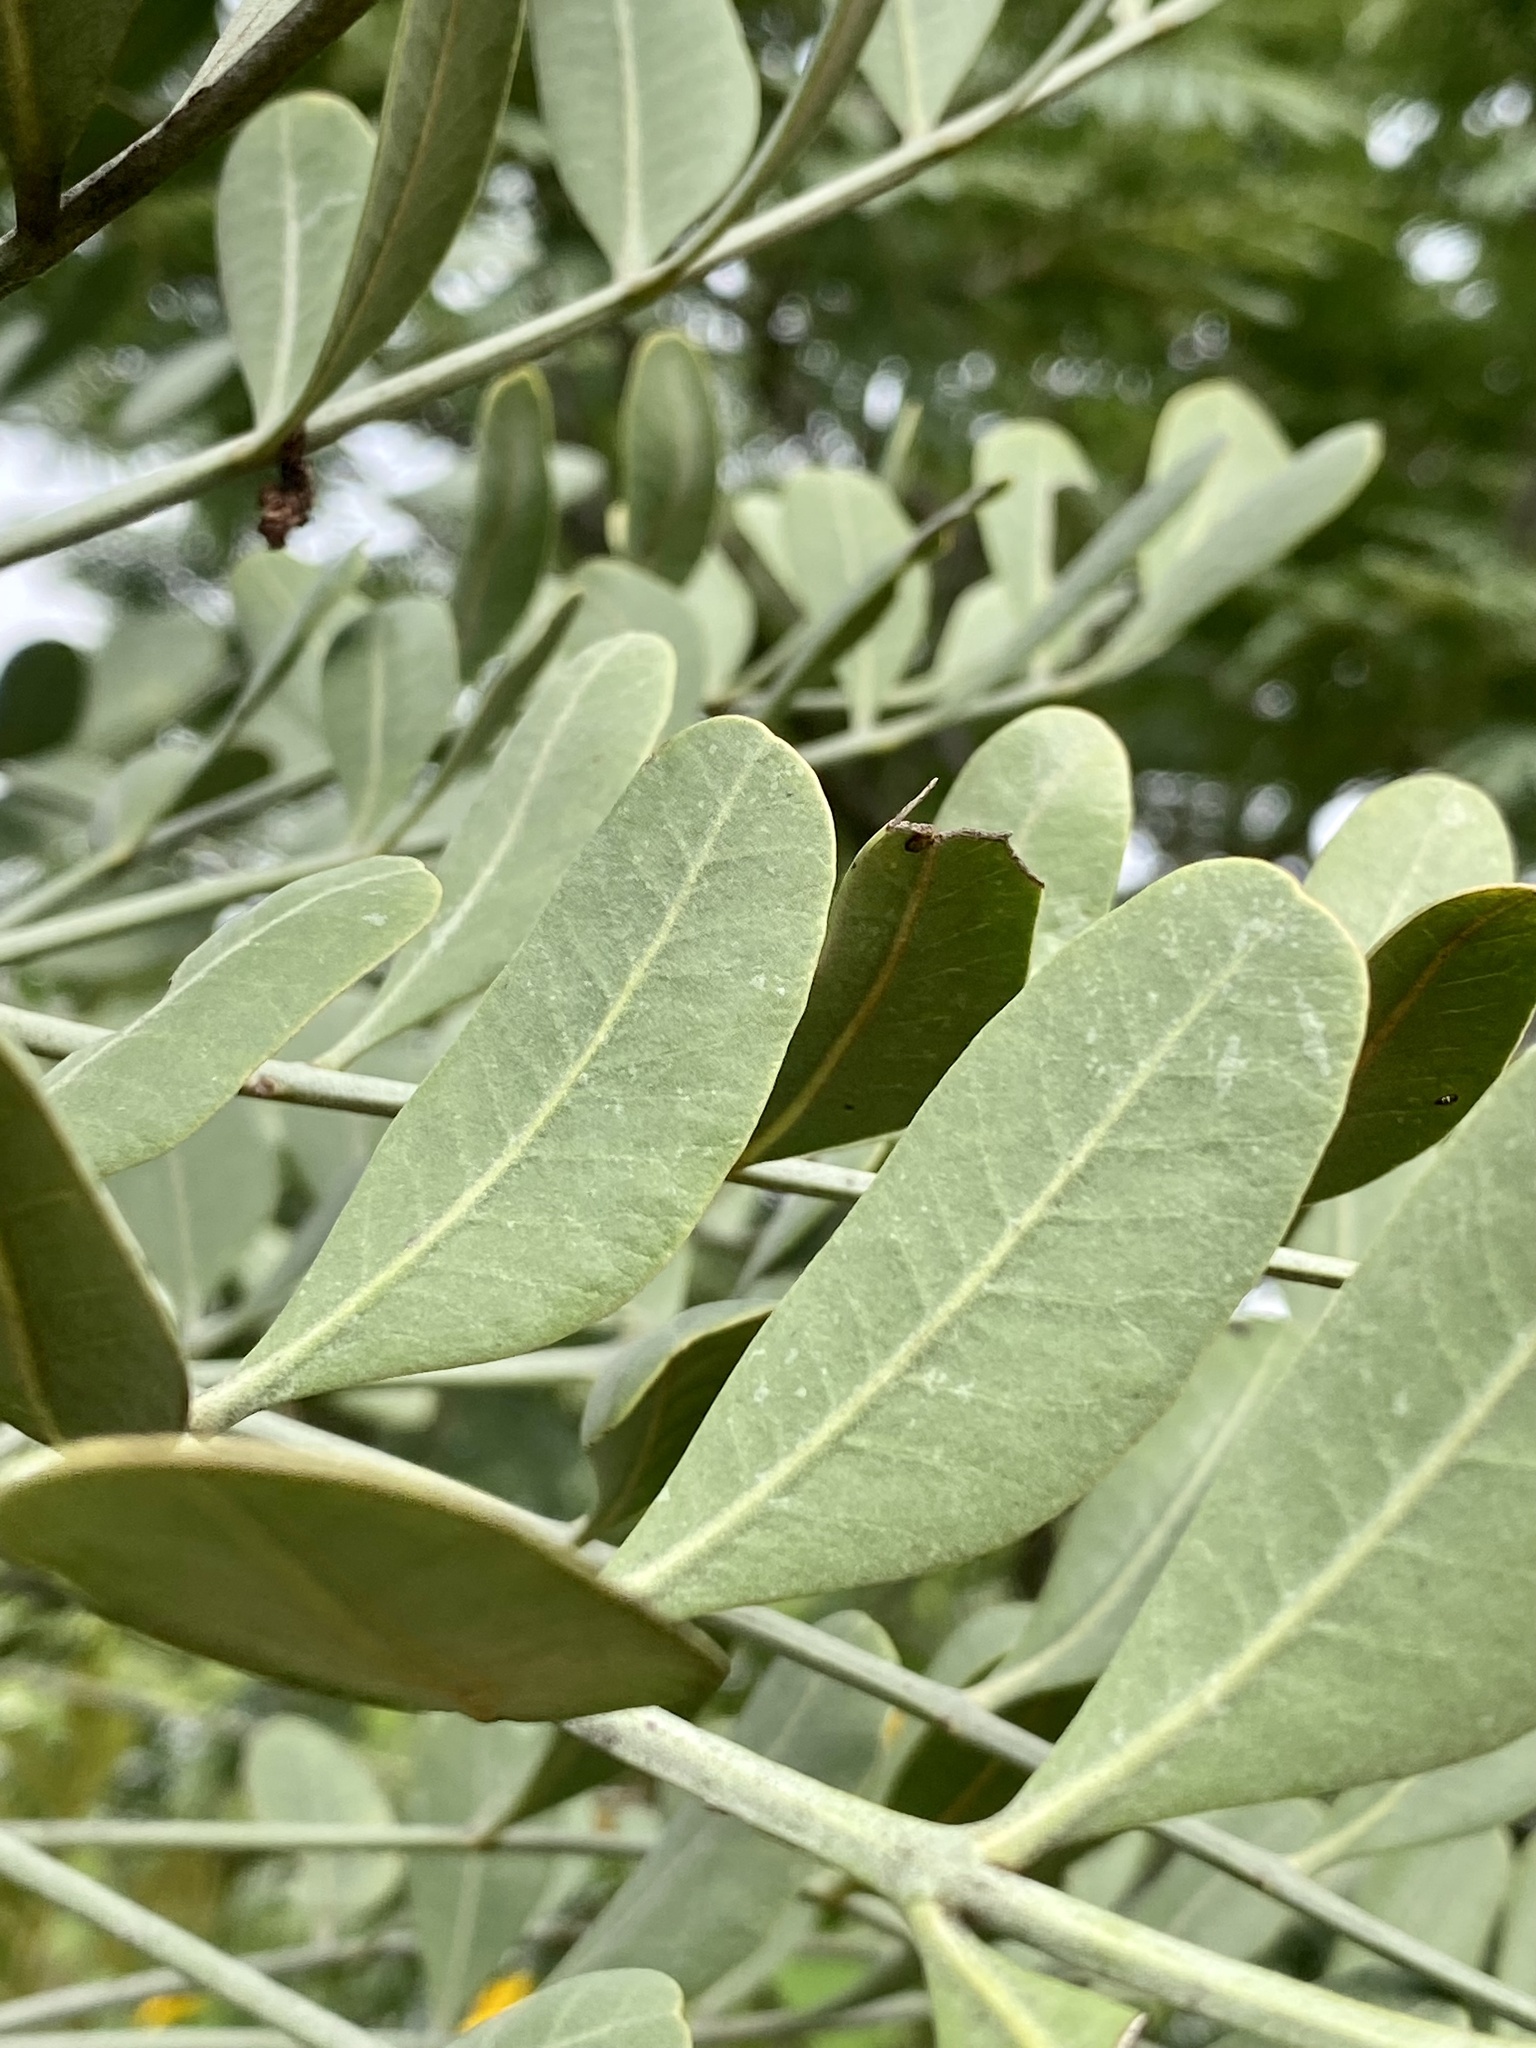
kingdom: Plantae
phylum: Tracheophyta
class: Magnoliopsida
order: Sapindales
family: Anacardiaceae
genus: Pseudosmodingium
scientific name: Pseudosmodingium virletii
